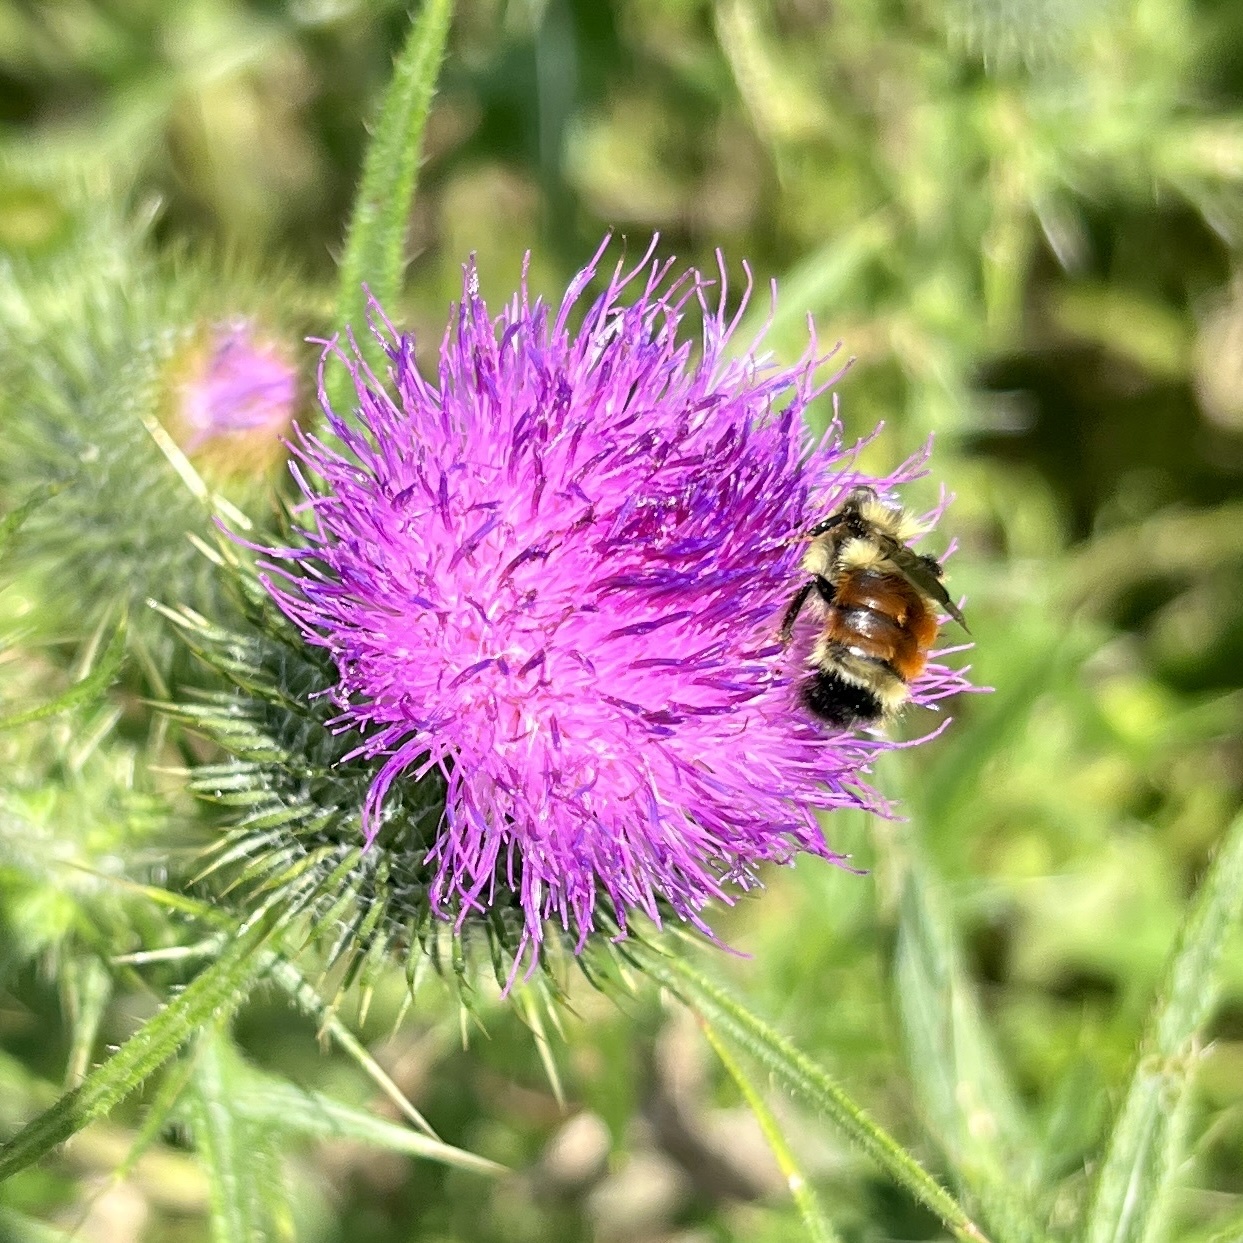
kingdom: Animalia
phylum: Arthropoda
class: Insecta
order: Hymenoptera
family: Apidae
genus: Bombus
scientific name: Bombus ternarius
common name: Tri-colored bumble bee
